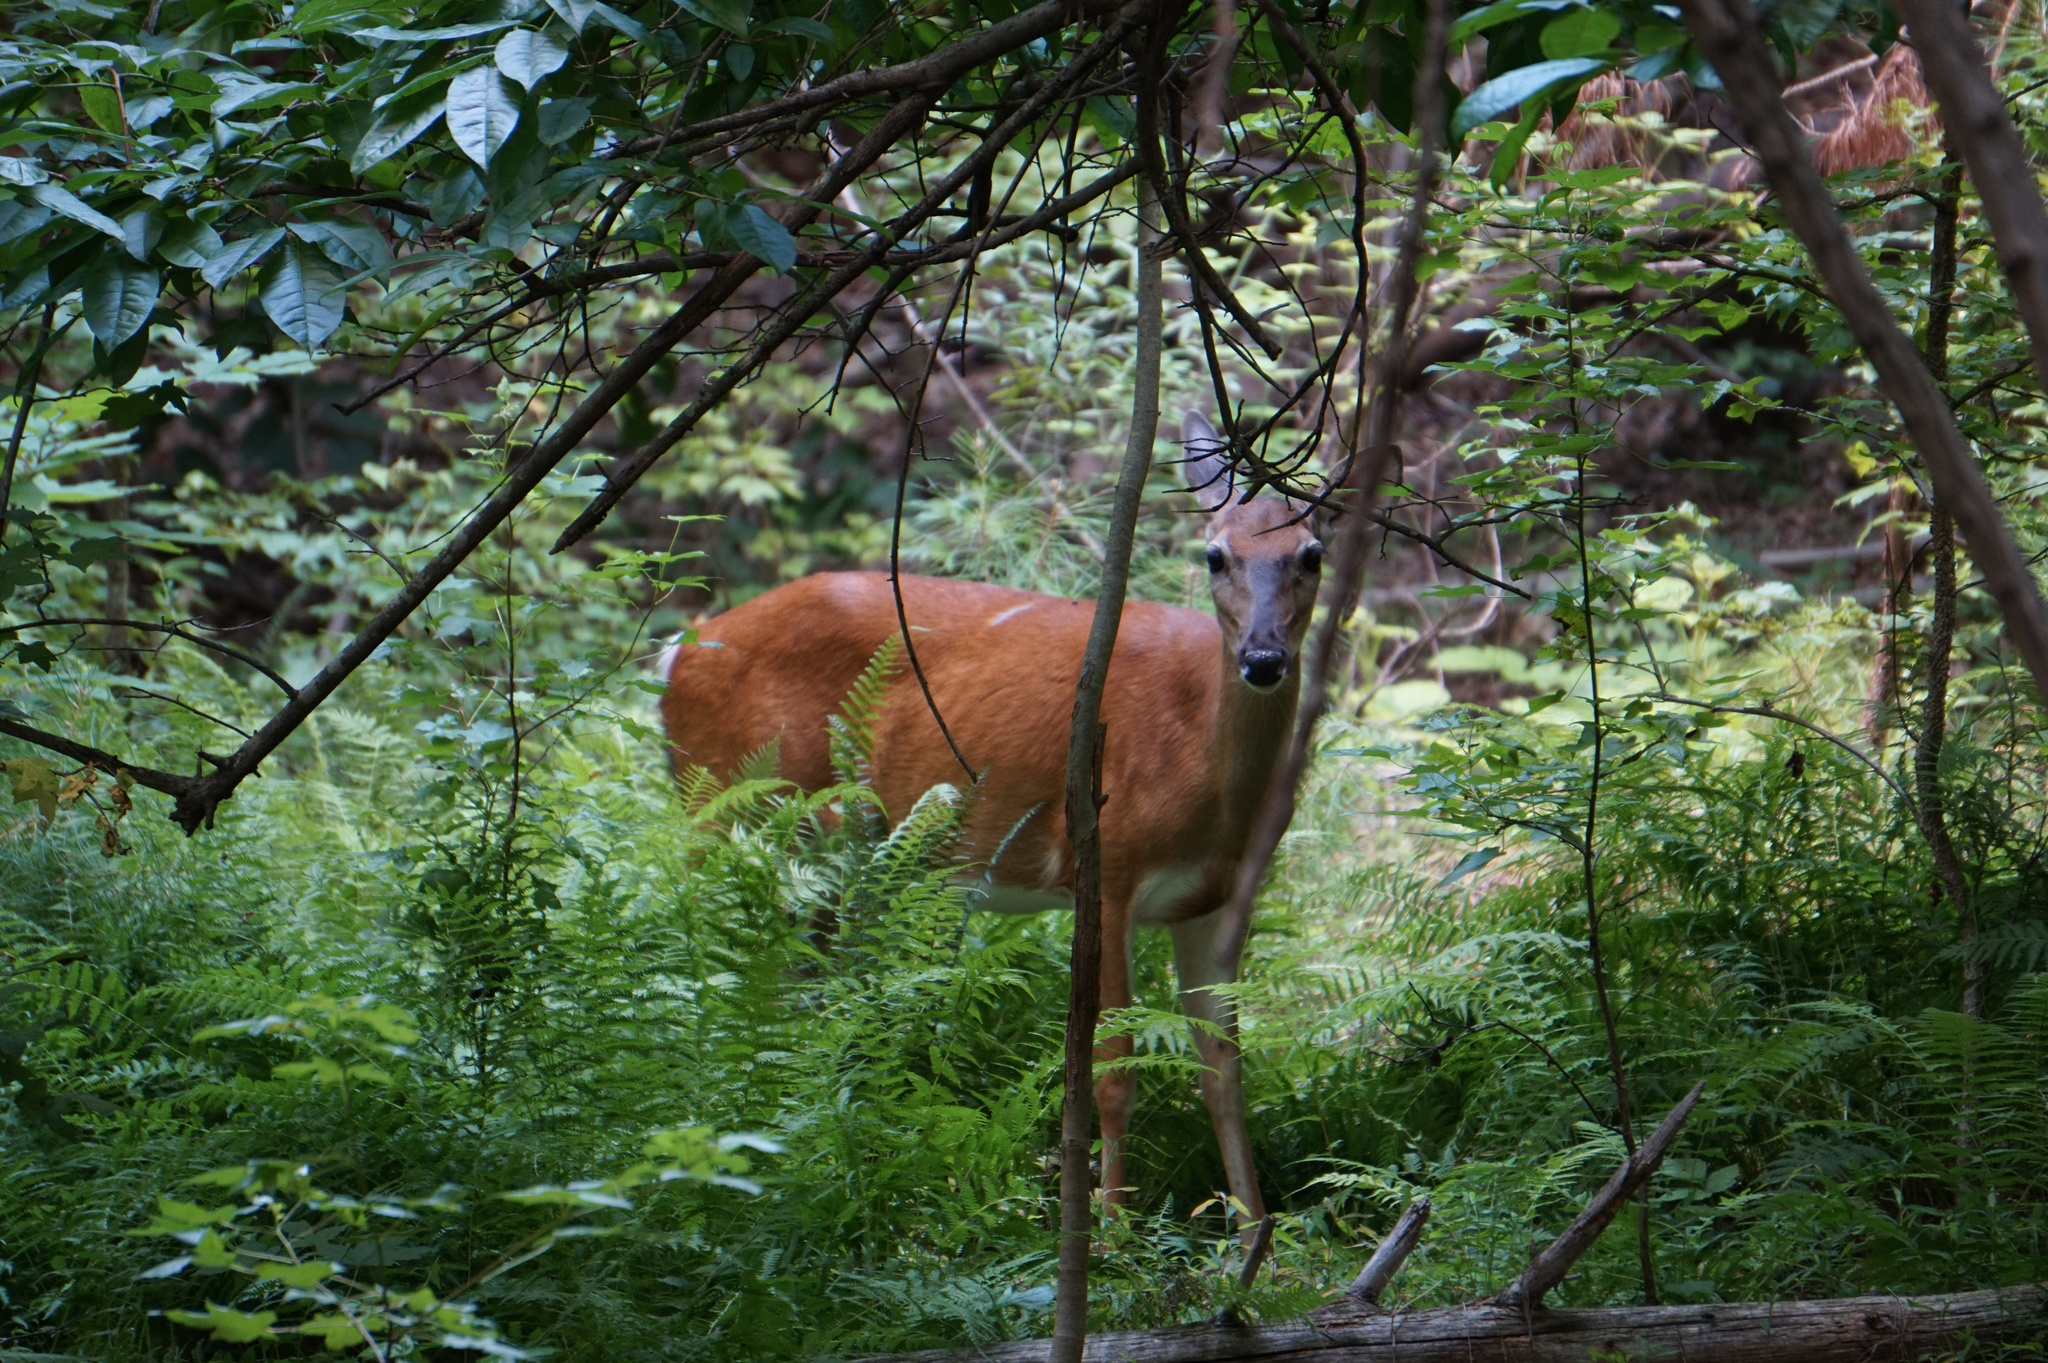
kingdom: Animalia
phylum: Chordata
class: Mammalia
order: Artiodactyla
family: Cervidae
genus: Odocoileus
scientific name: Odocoileus virginianus
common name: White-tailed deer
